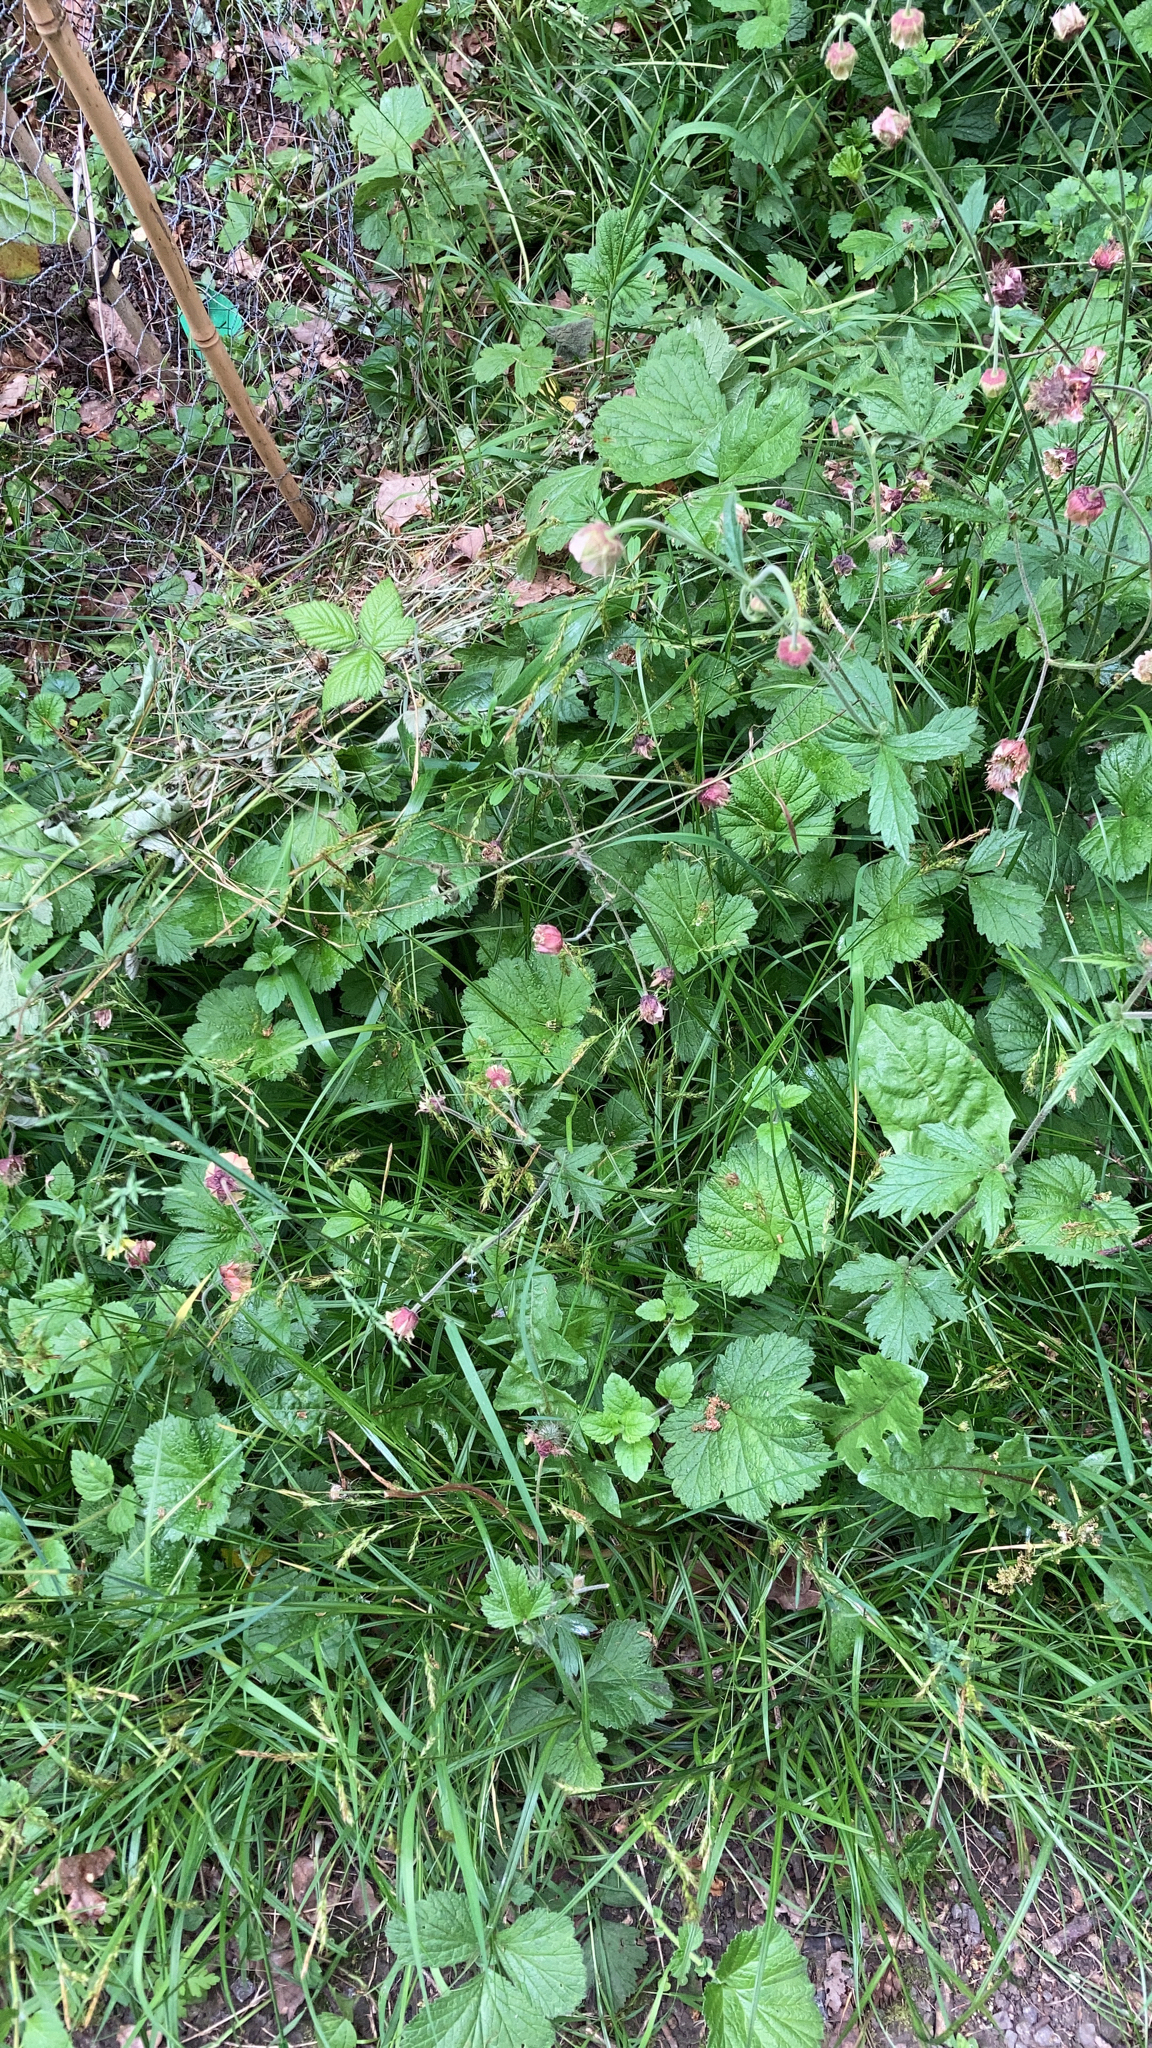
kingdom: Plantae
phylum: Tracheophyta
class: Magnoliopsida
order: Rosales
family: Rosaceae
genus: Geum
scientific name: Geum rivale
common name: Water avens
